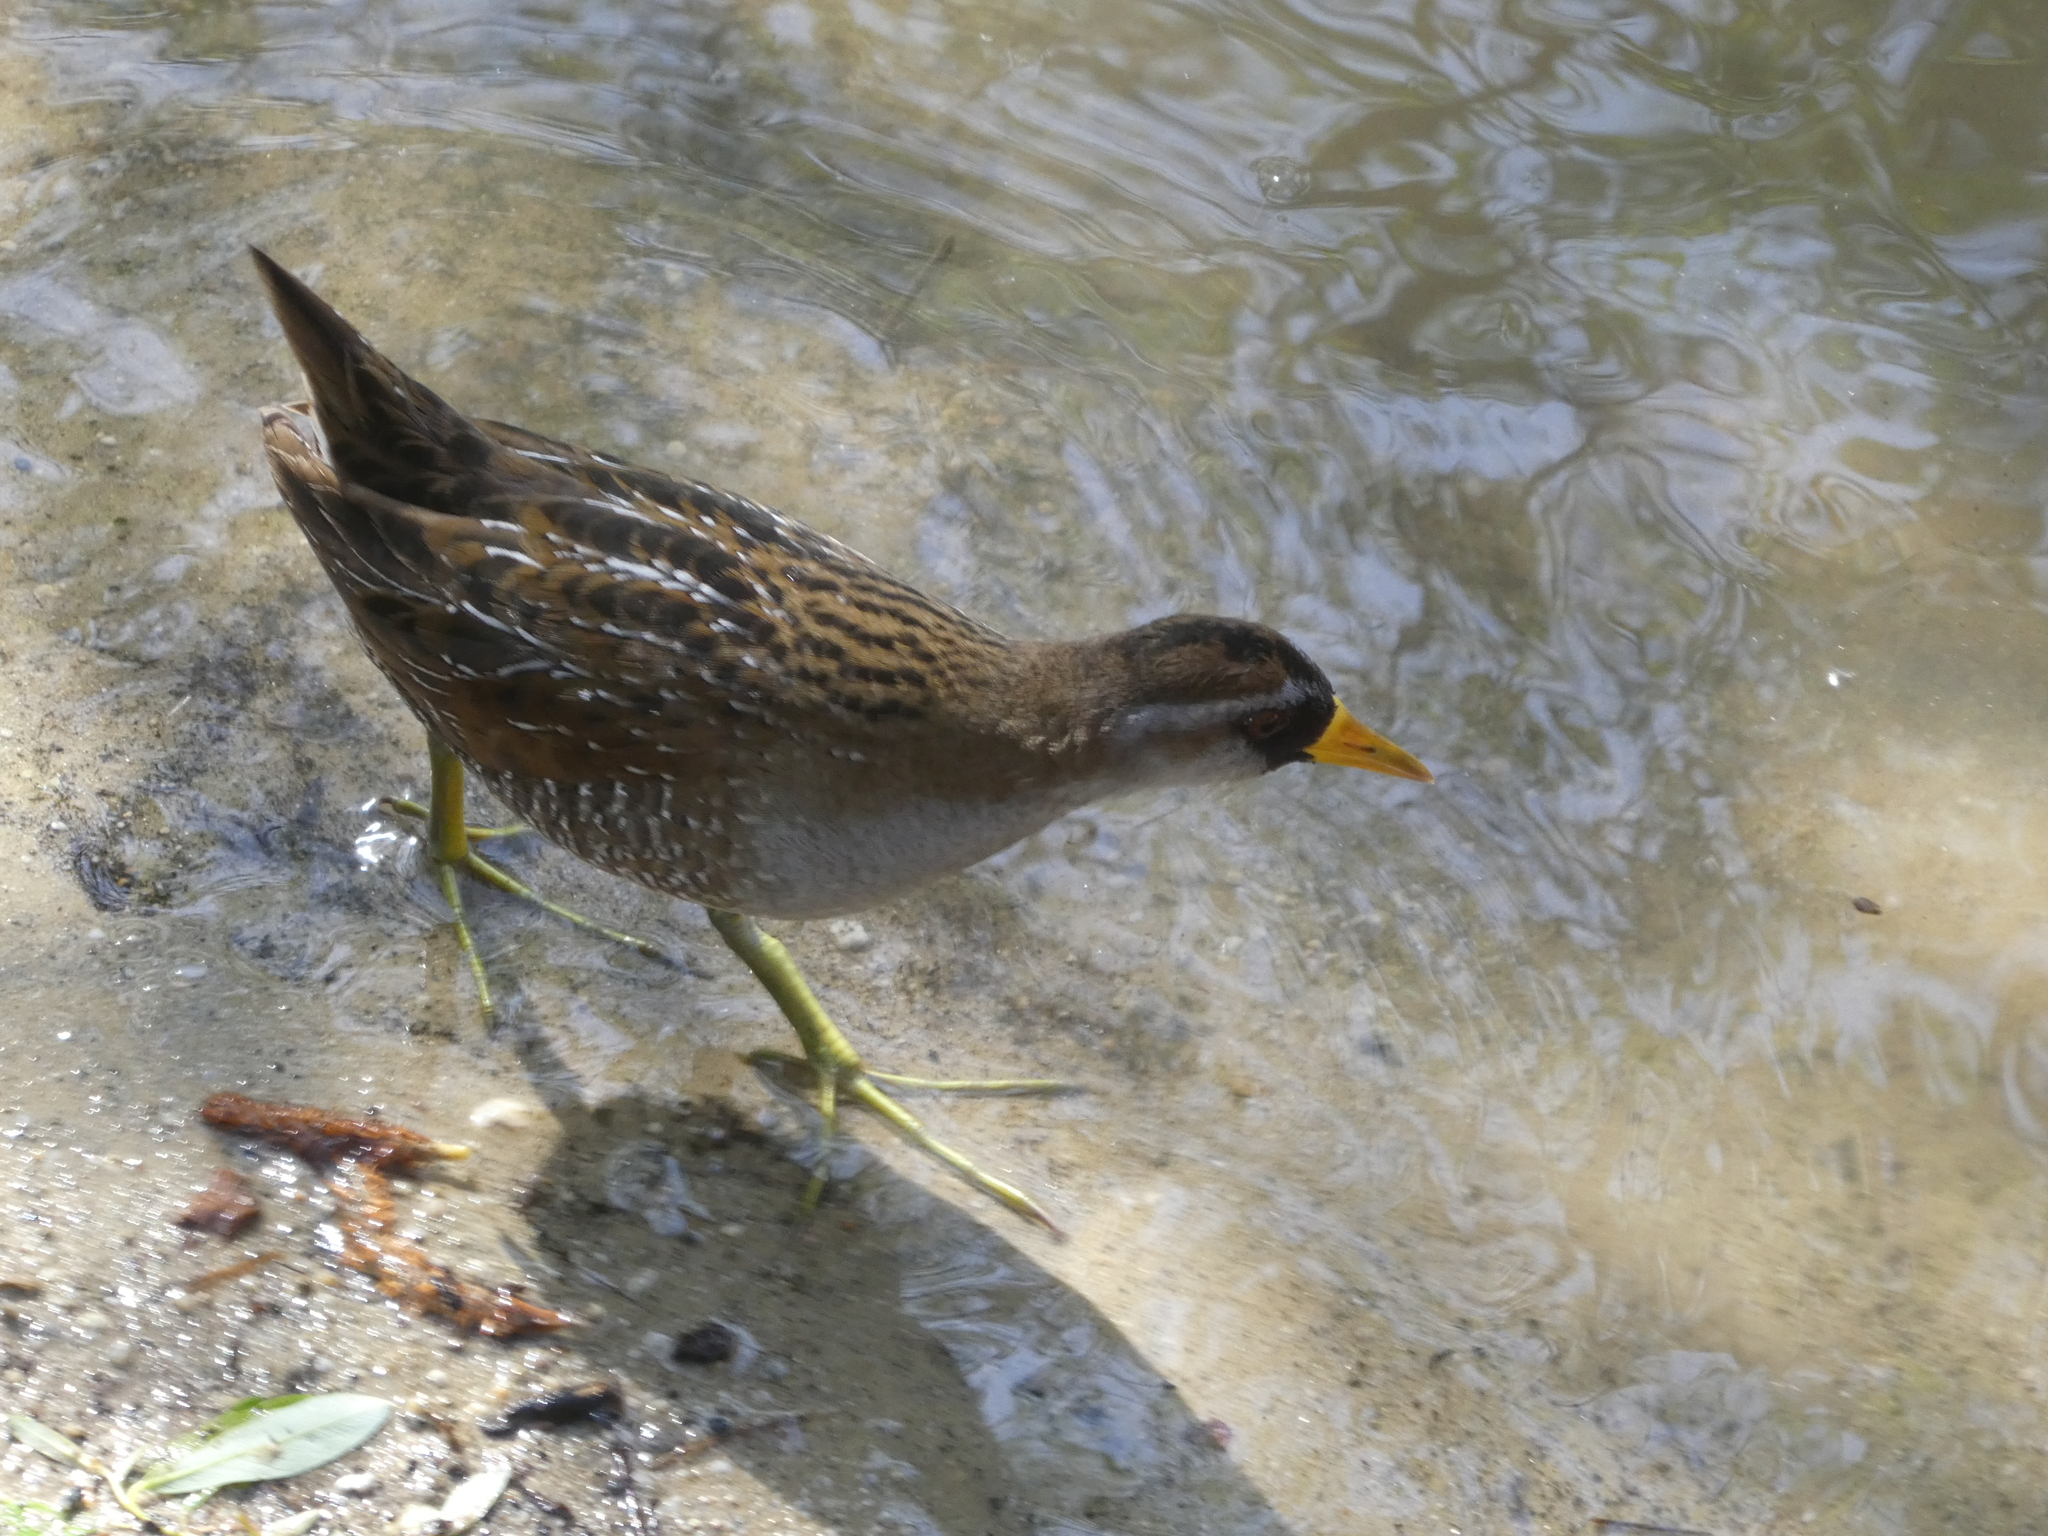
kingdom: Animalia
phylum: Chordata
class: Aves
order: Gruiformes
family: Rallidae
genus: Porzana
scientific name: Porzana carolina
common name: Sora
